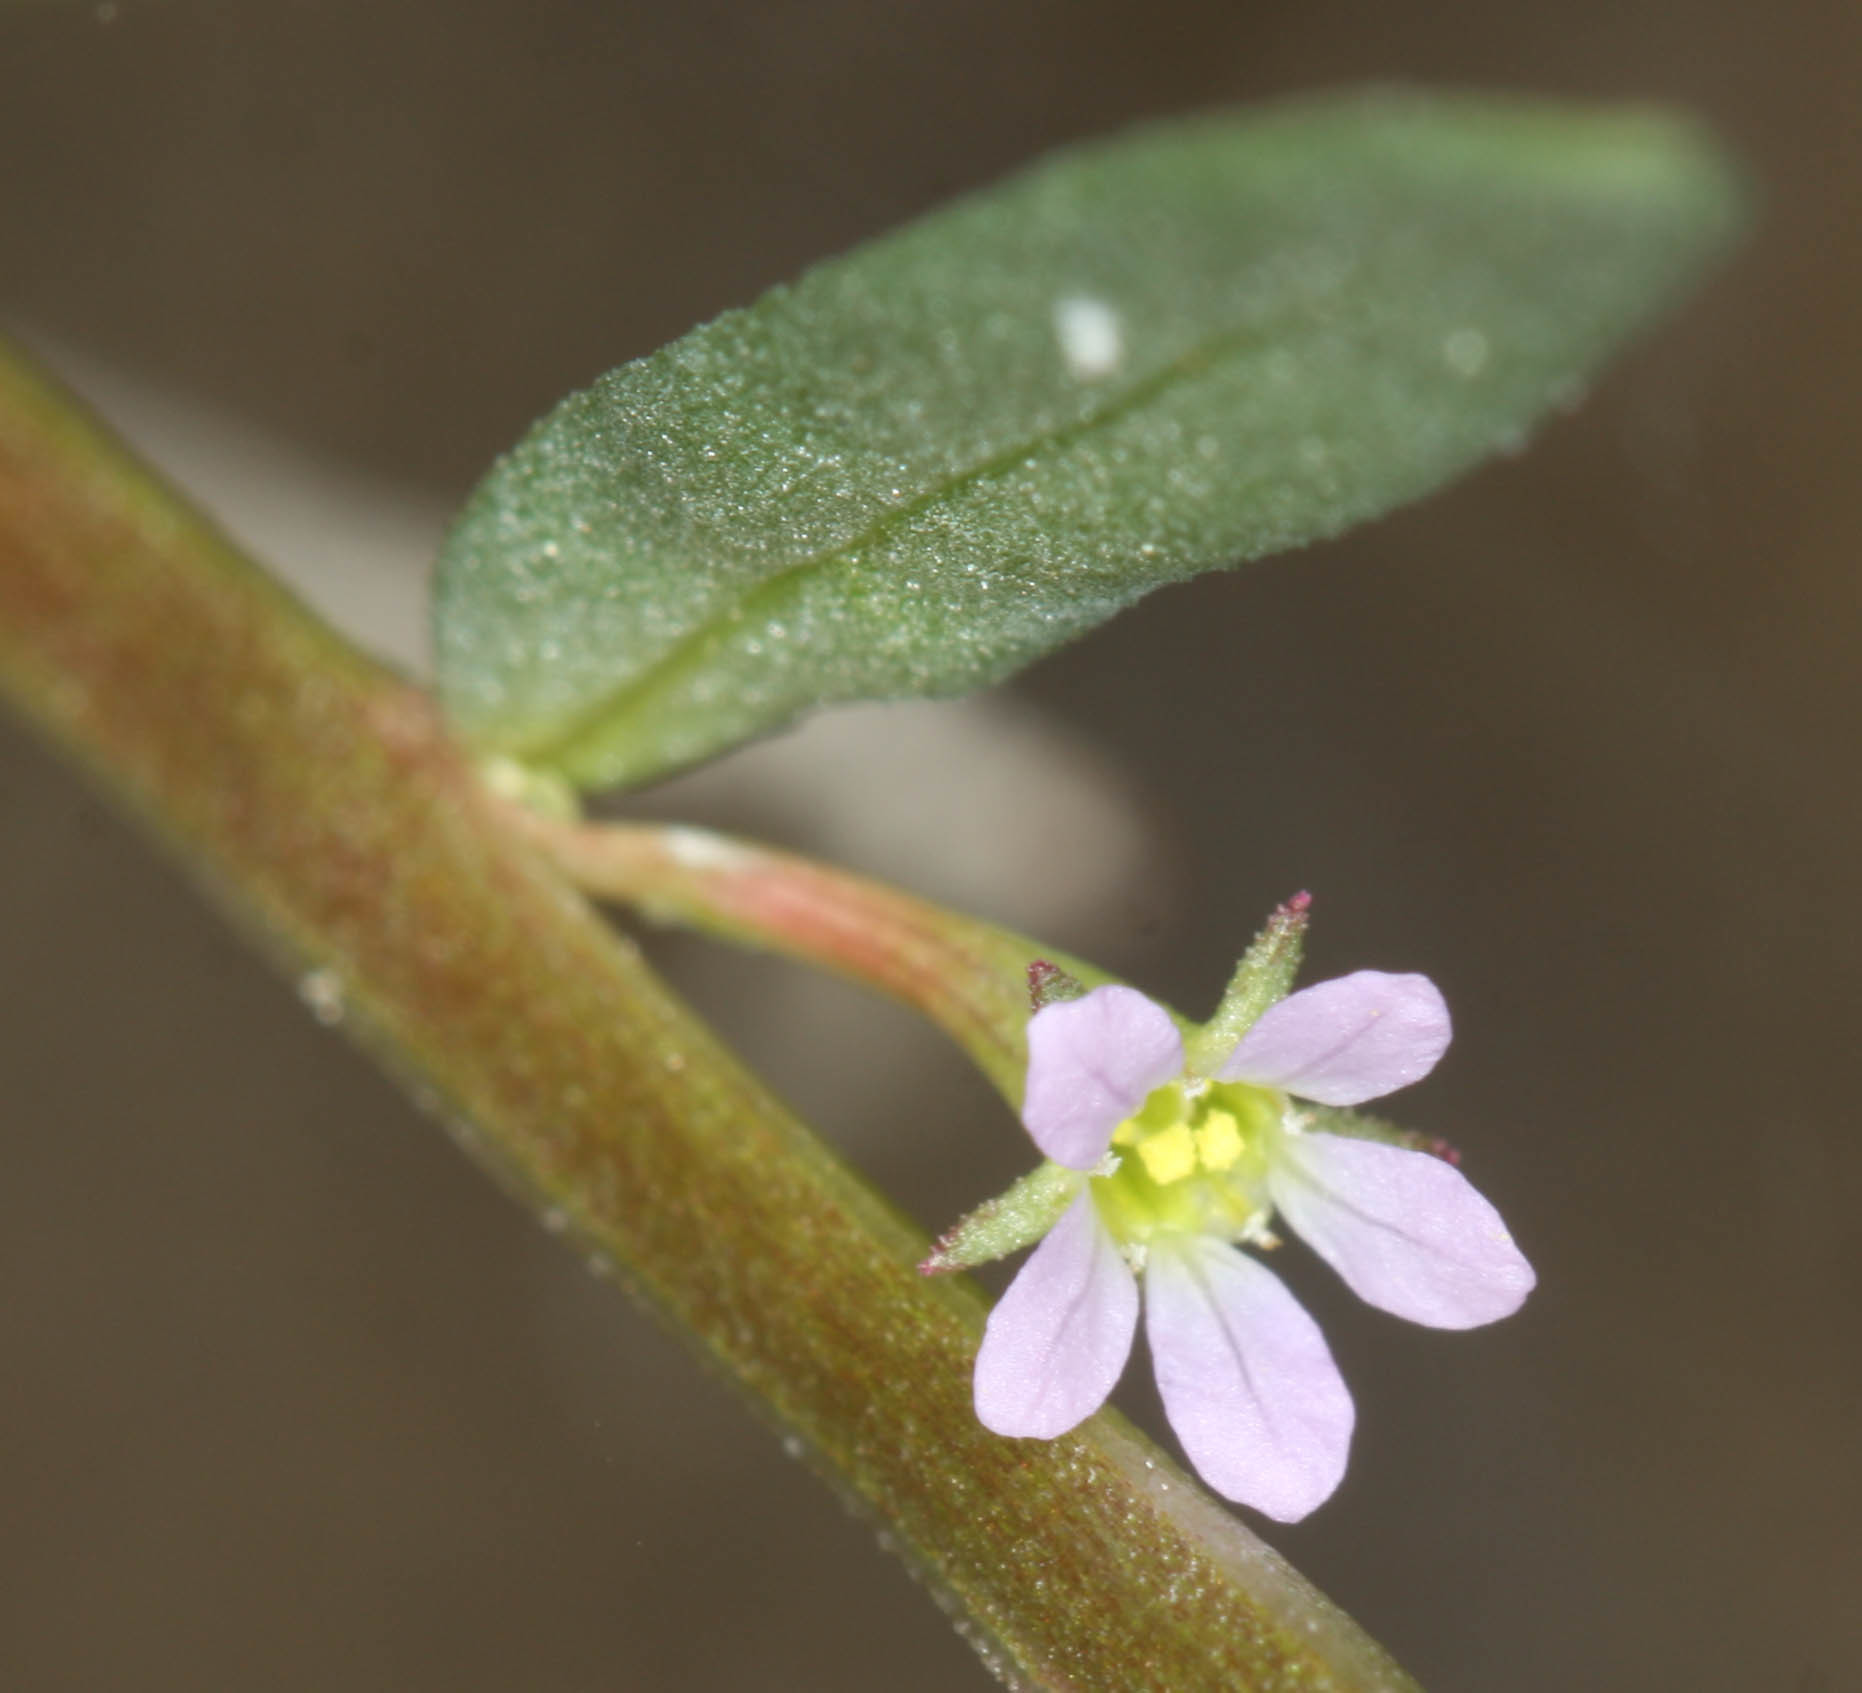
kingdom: Plantae
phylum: Tracheophyta
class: Magnoliopsida
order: Myrtales
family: Lythraceae
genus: Lythrum
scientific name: Lythrum hyssopifolia
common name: Grass-poly
